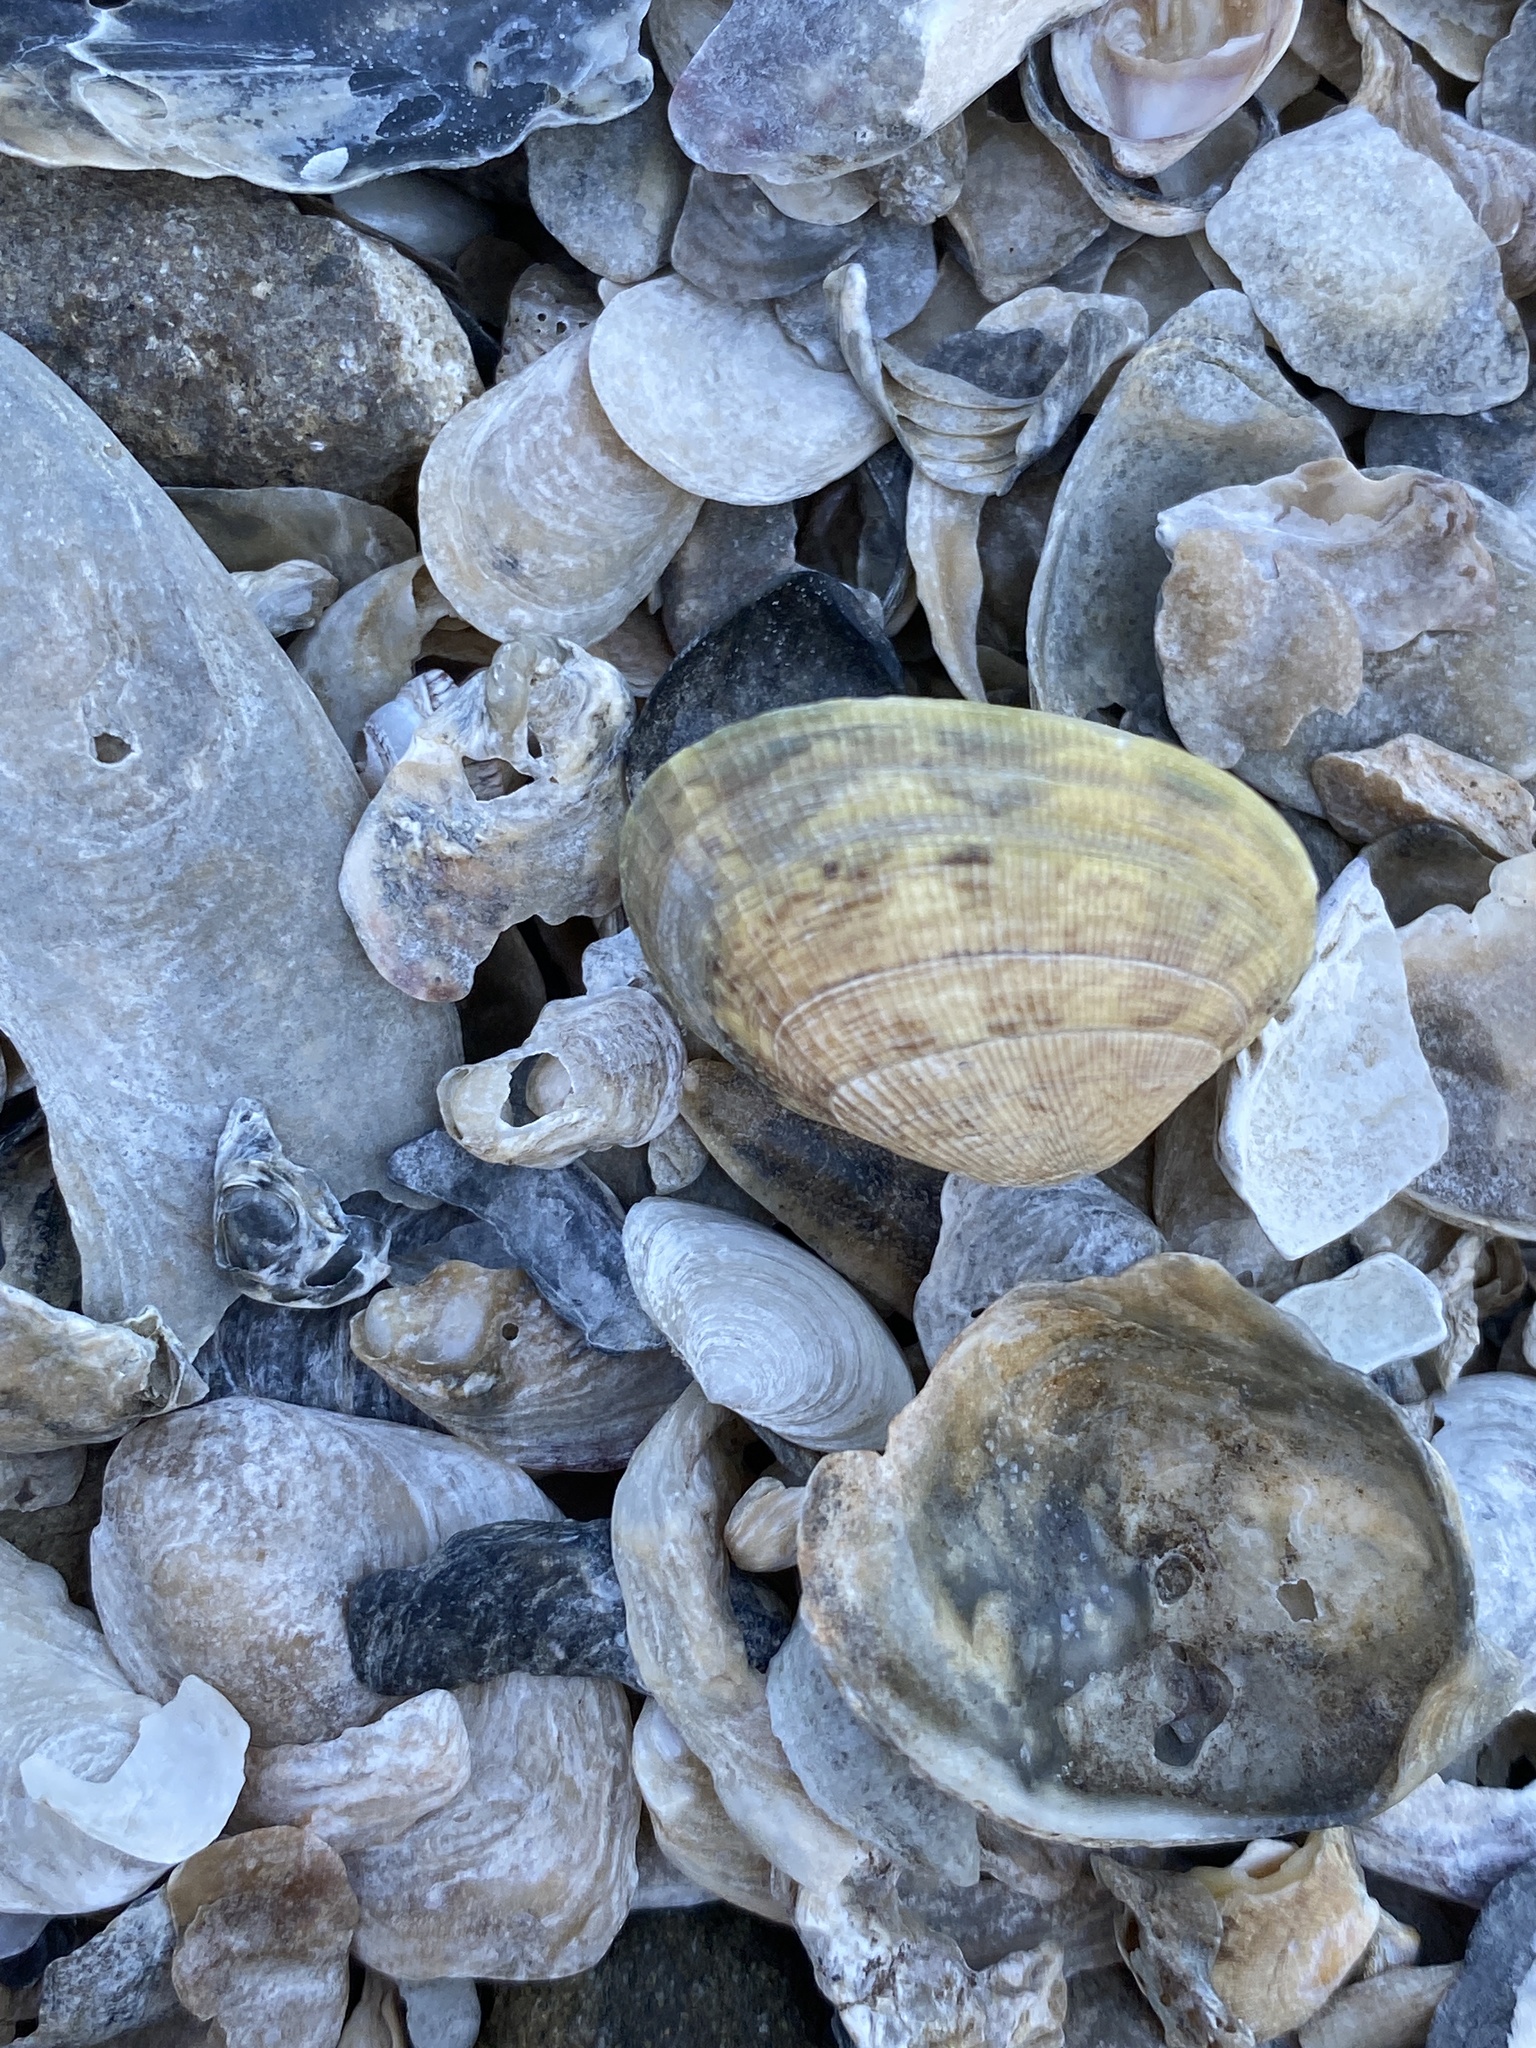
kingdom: Animalia
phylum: Mollusca
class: Bivalvia
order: Venerida
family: Veneridae
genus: Ruditapes
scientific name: Ruditapes philippinarum
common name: Manila clam
